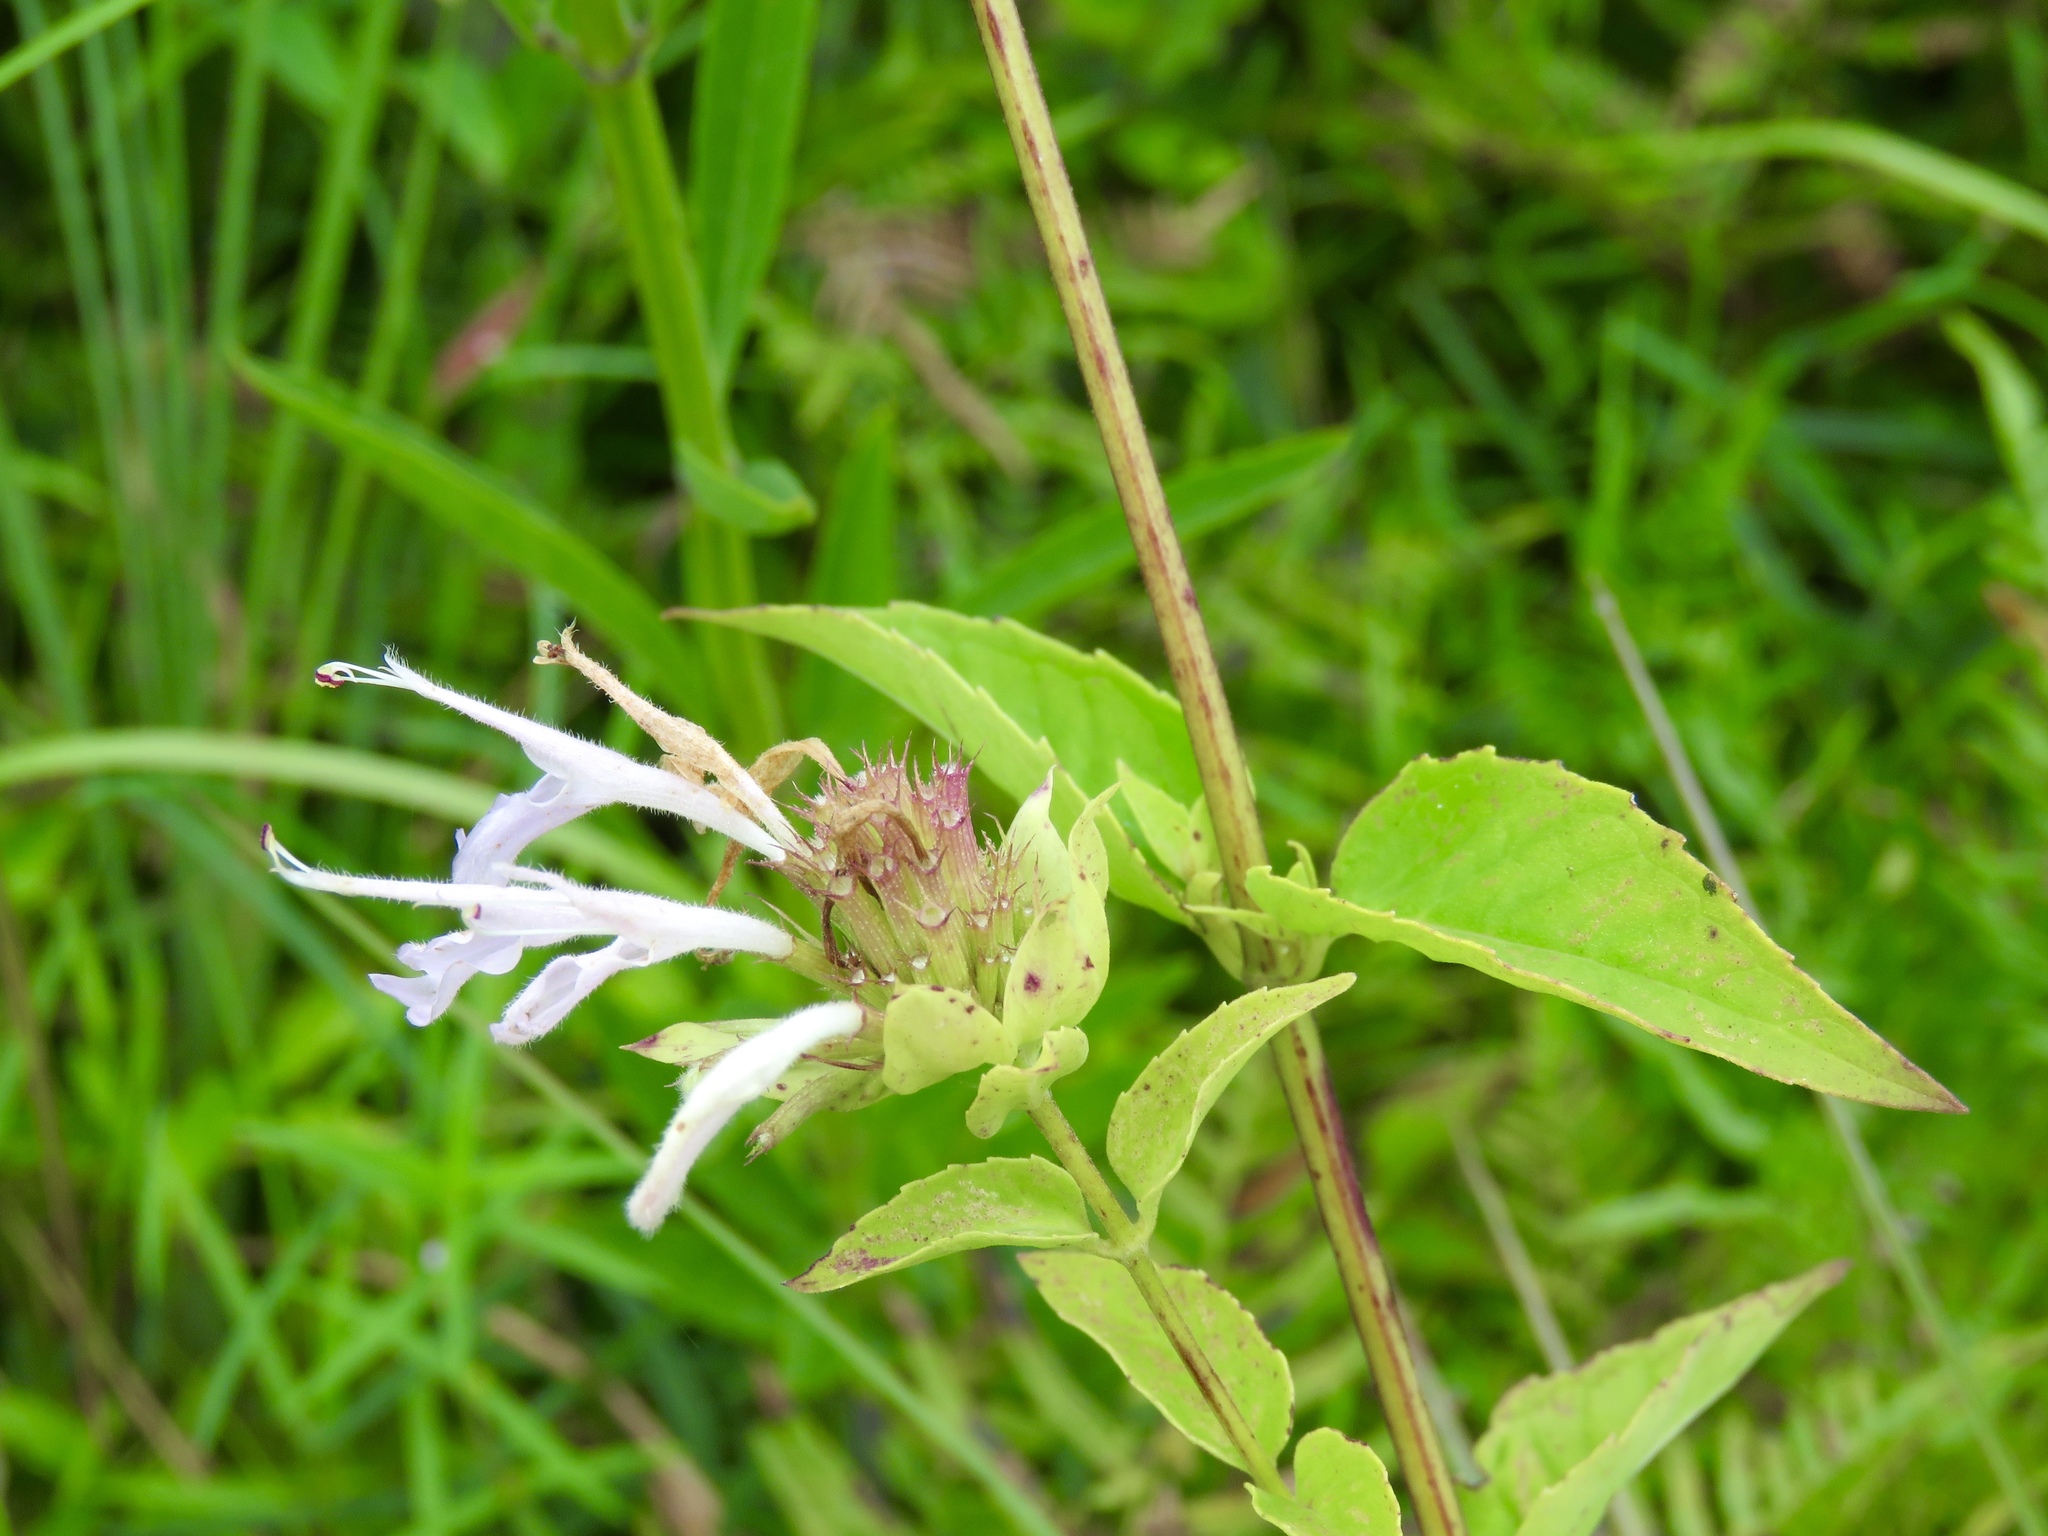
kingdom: Plantae
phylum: Tracheophyta
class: Magnoliopsida
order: Lamiales
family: Lamiaceae
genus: Monarda
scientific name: Monarda fistulosa
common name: Purple beebalm
